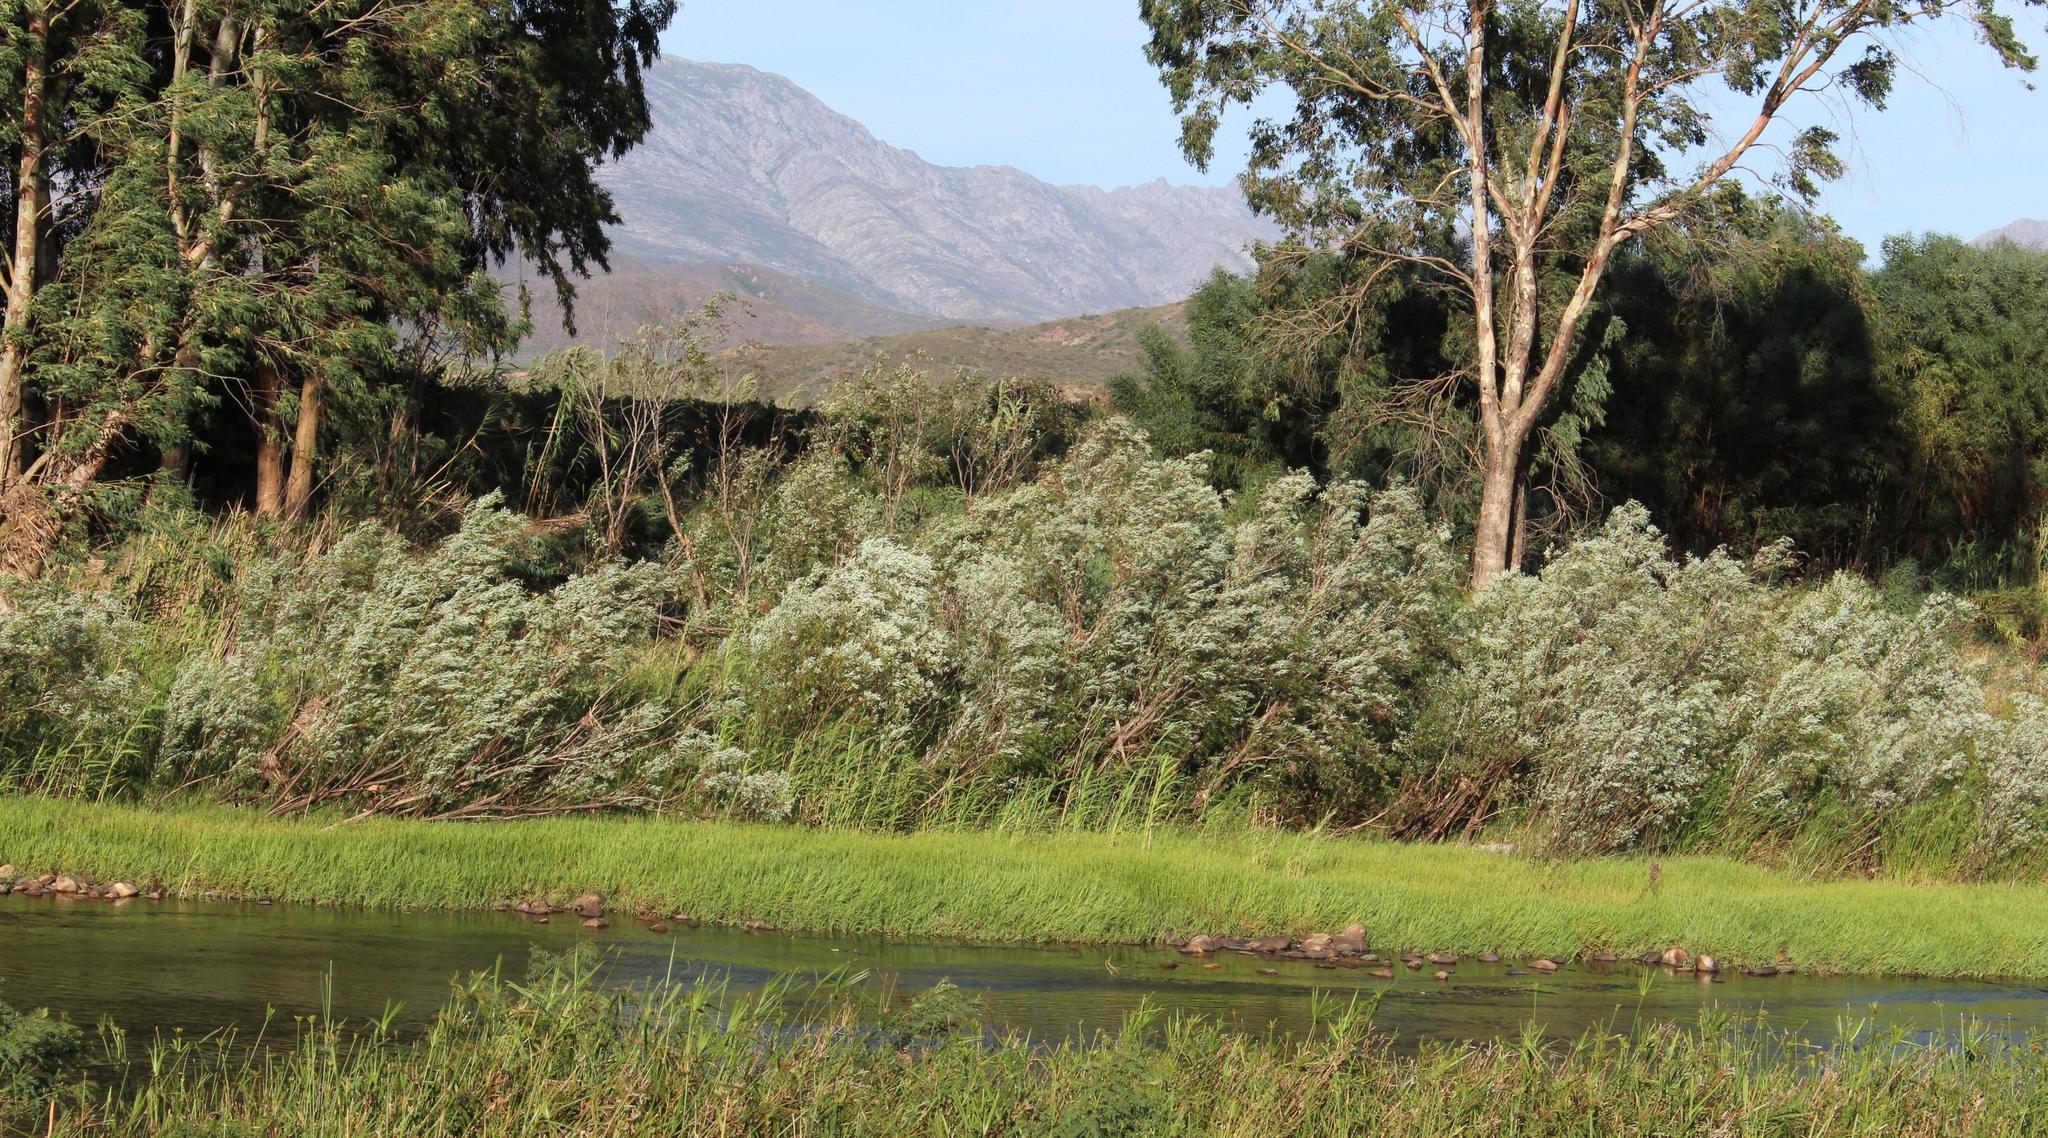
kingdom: Plantae
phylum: Tracheophyta
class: Liliopsida
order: Poales
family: Poaceae
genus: Phragmites
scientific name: Phragmites australis
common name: Common reed
